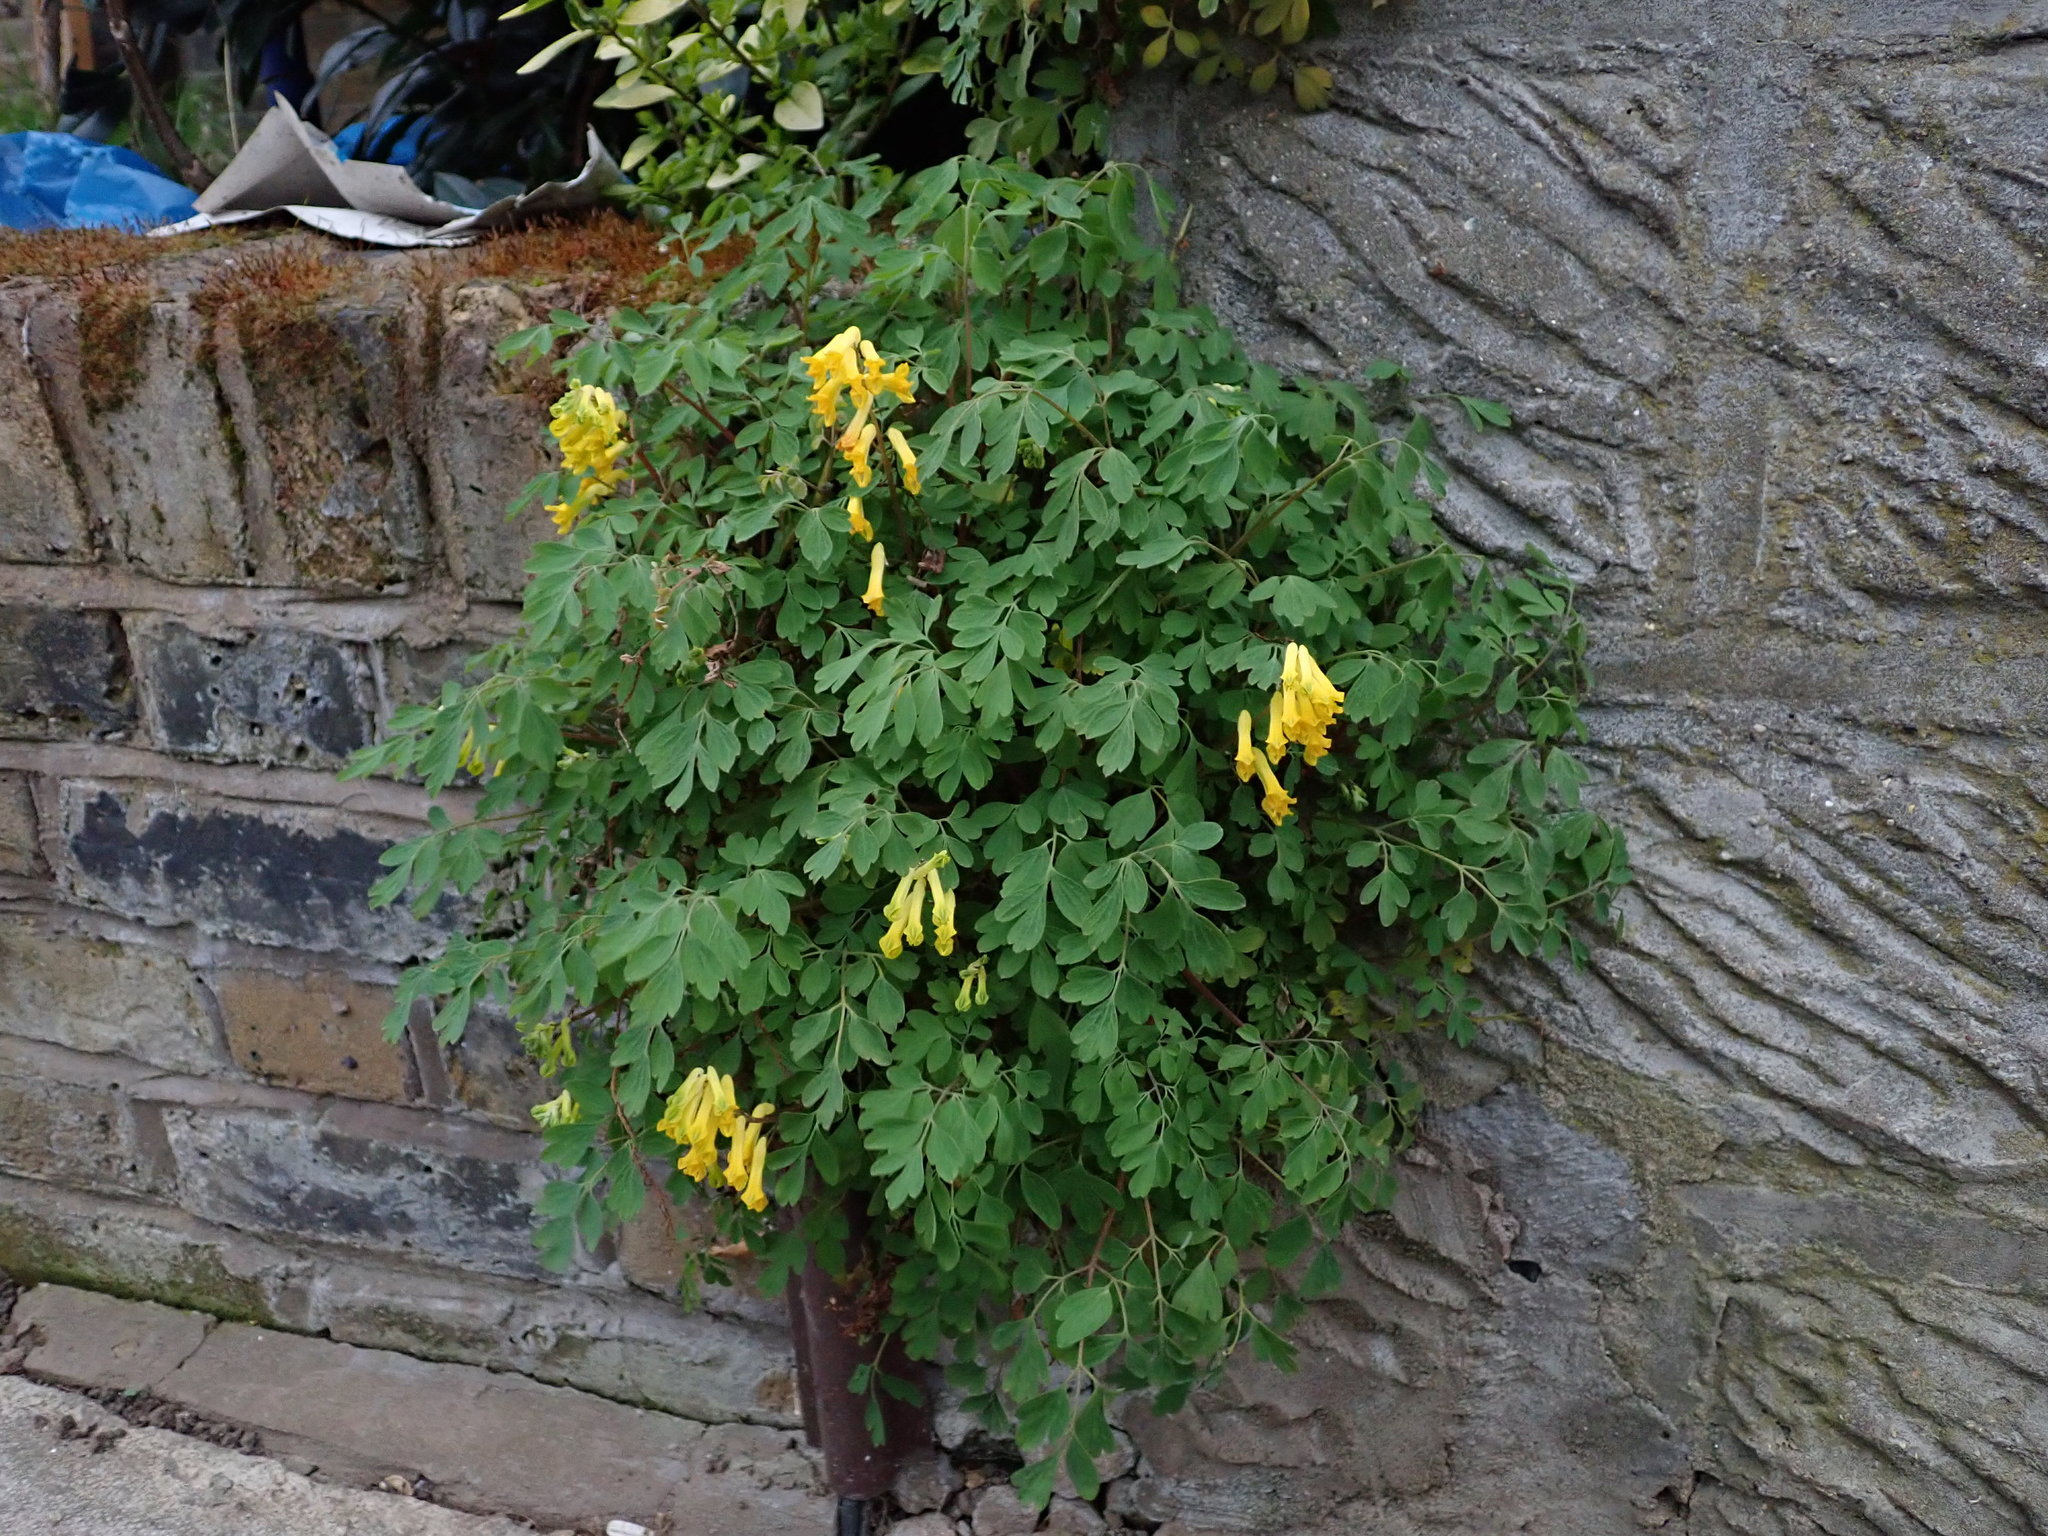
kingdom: Plantae
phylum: Tracheophyta
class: Magnoliopsida
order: Ranunculales
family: Papaveraceae
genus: Pseudofumaria
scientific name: Pseudofumaria lutea
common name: Yellow corydalis
